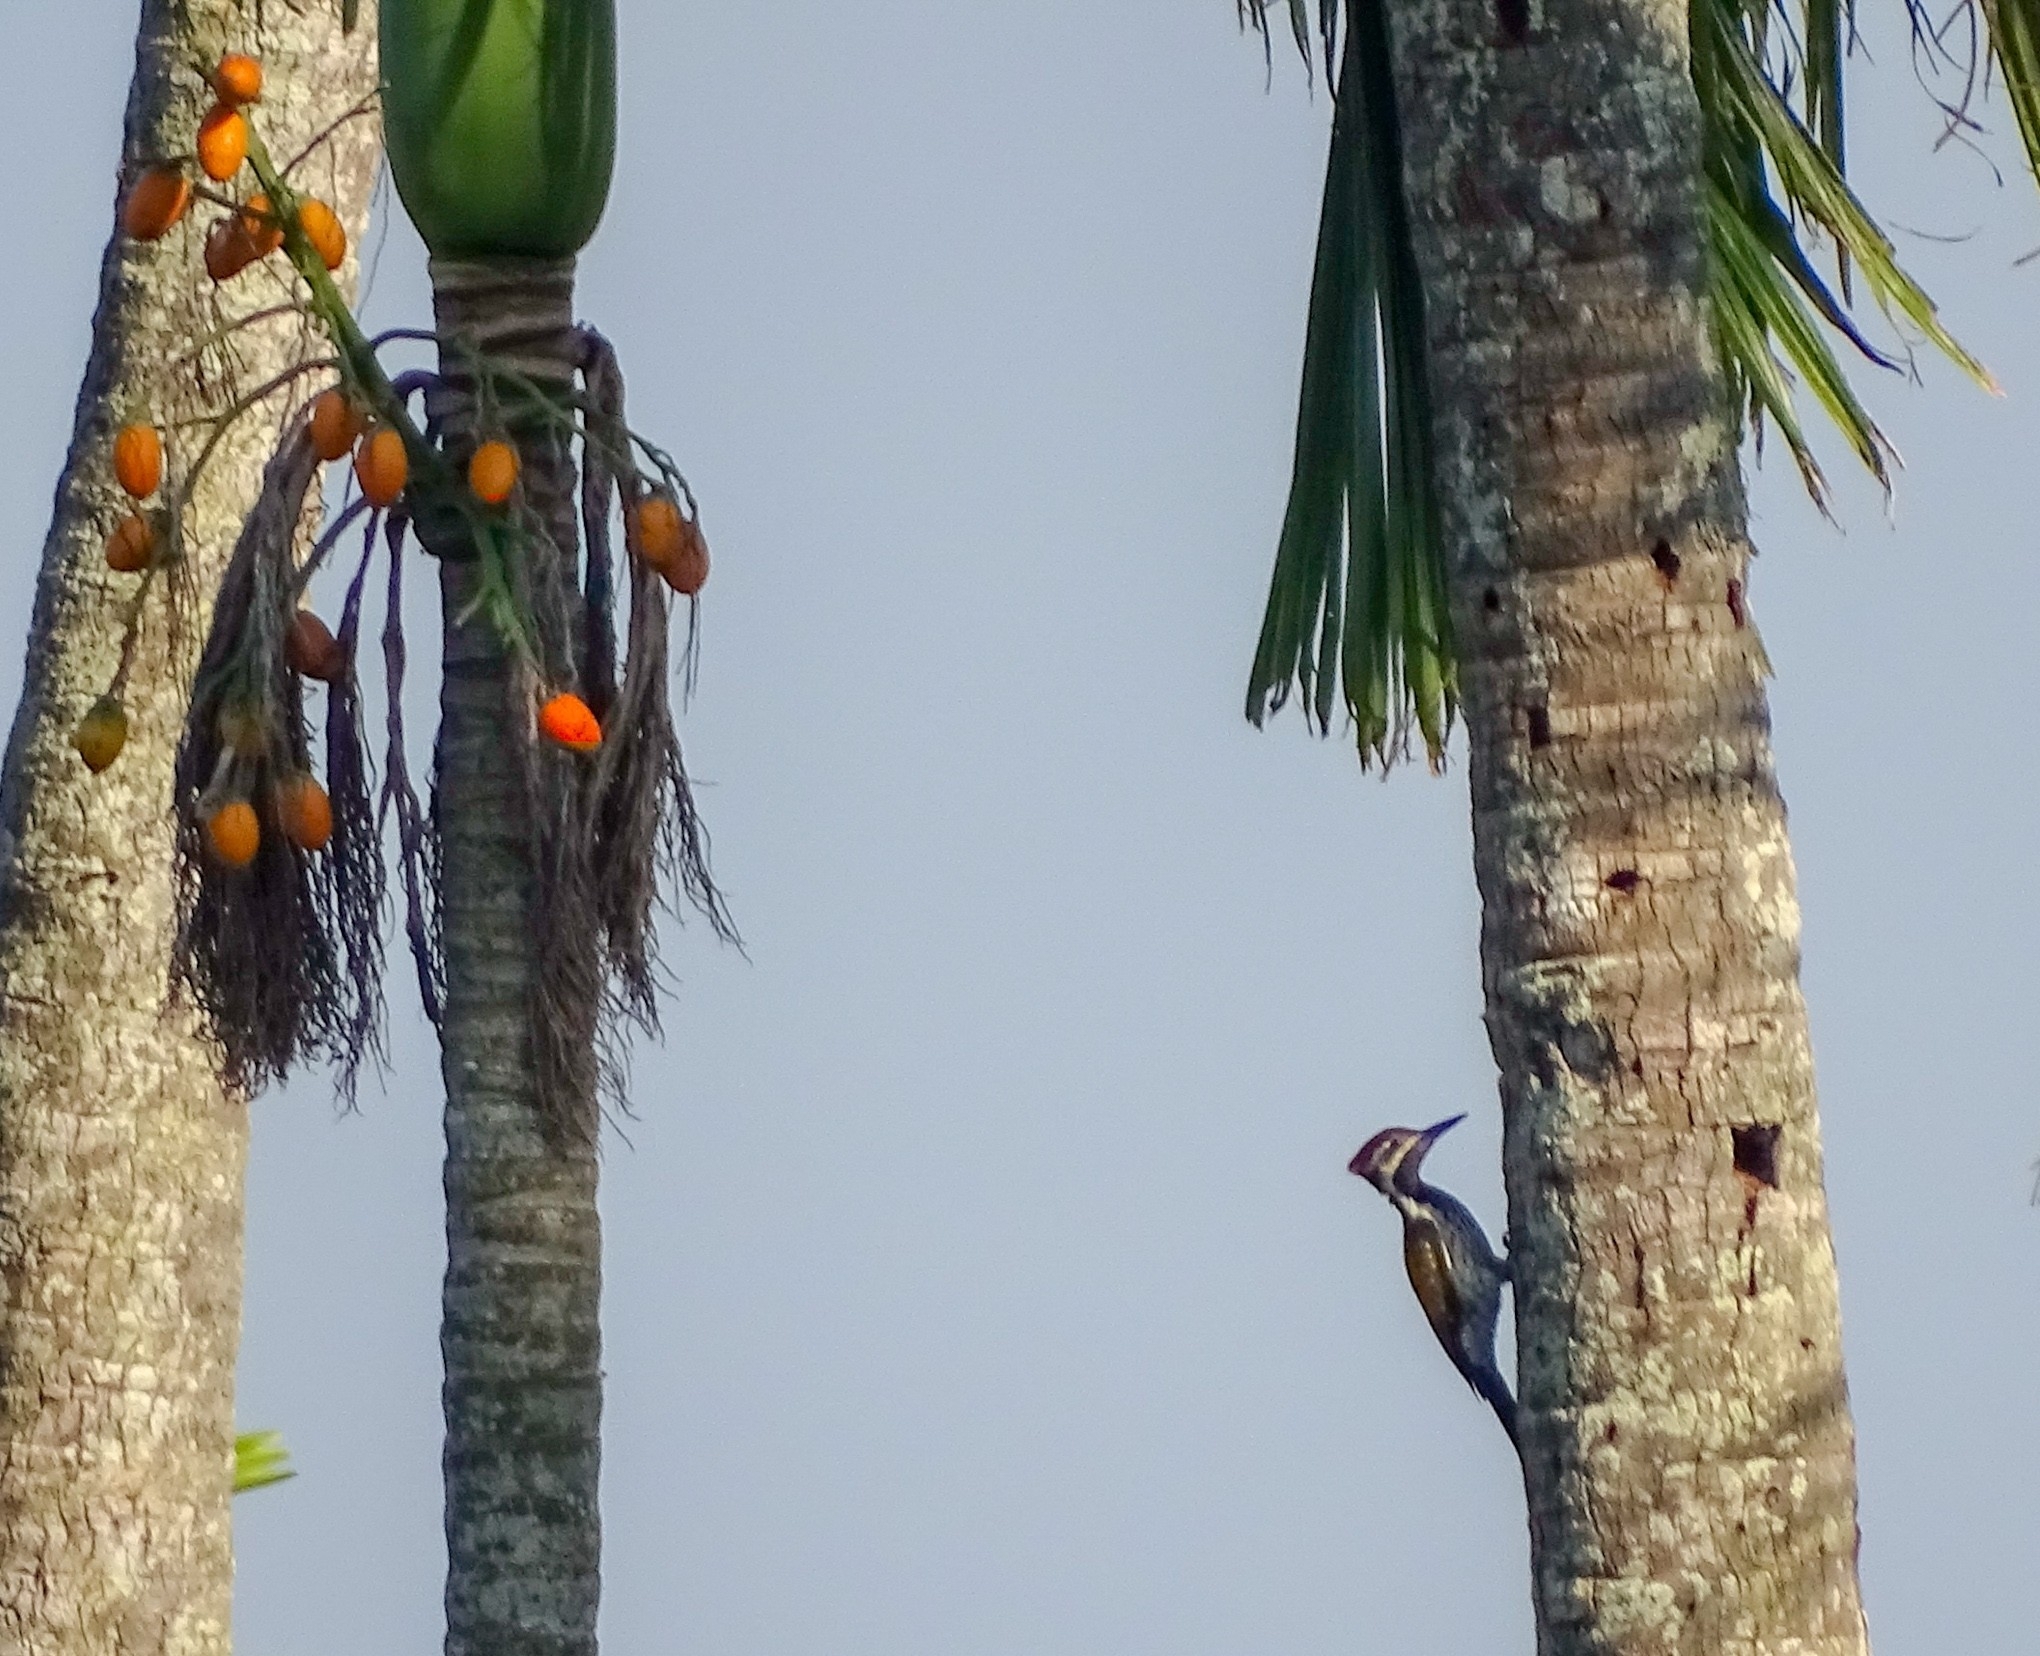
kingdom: Animalia
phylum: Chordata
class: Aves
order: Piciformes
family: Picidae
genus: Dinopium
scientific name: Dinopium benghalense
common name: Black-rumped flameback
